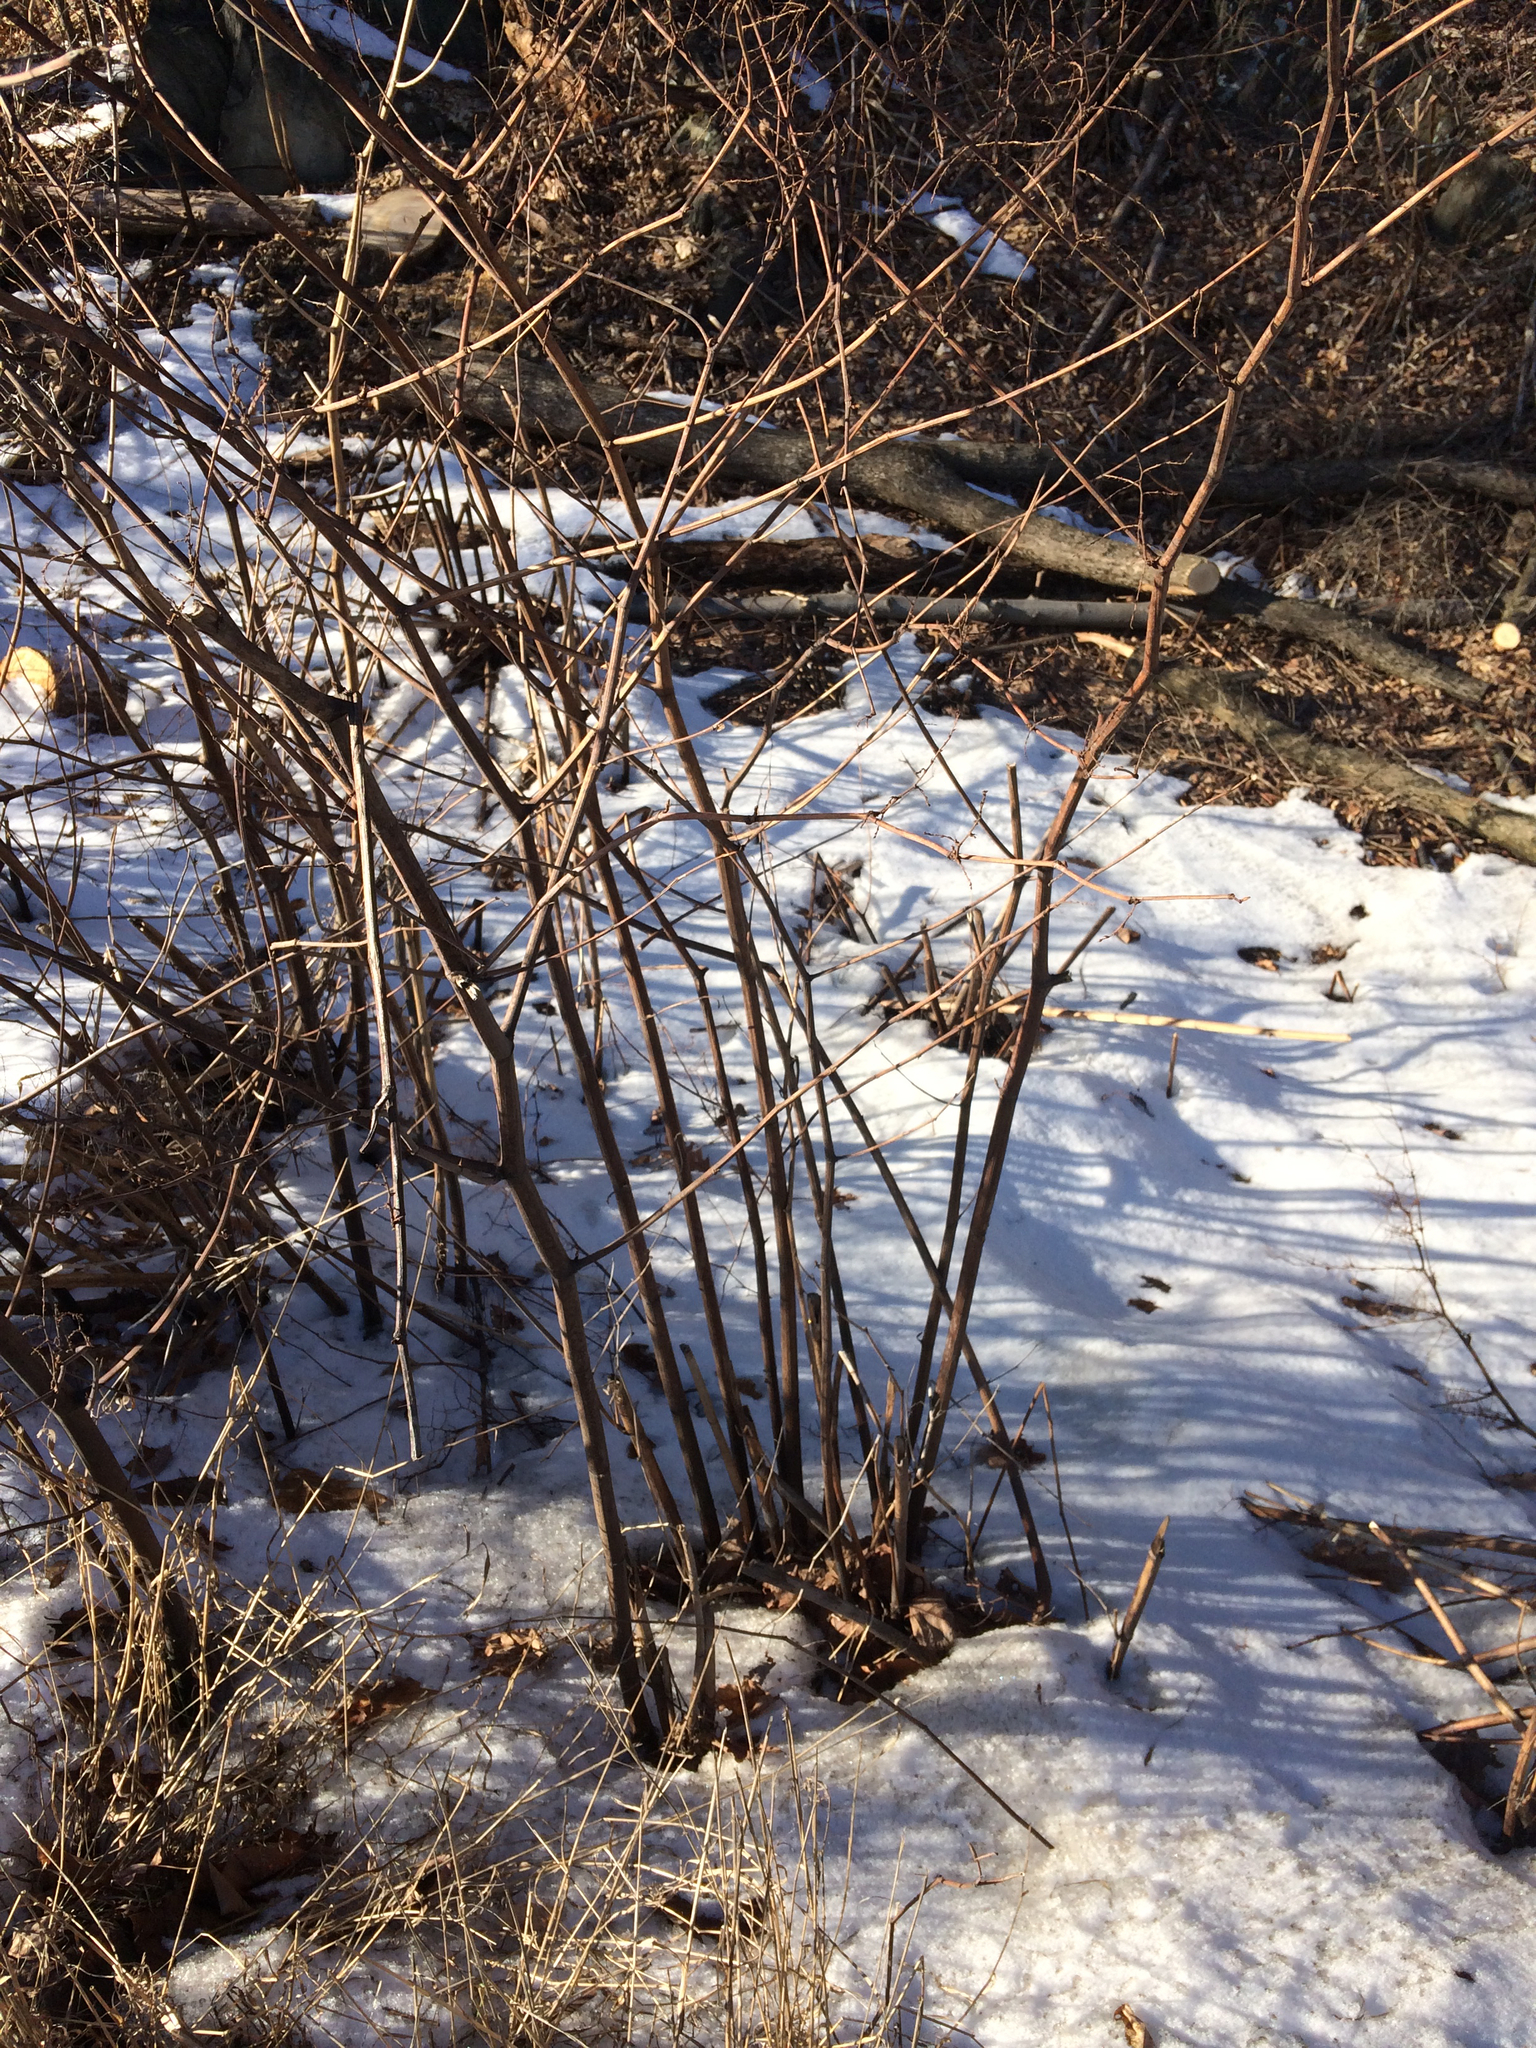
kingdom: Plantae
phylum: Tracheophyta
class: Magnoliopsida
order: Caryophyllales
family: Polygonaceae
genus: Reynoutria
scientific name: Reynoutria japonica
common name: Japanese knotweed
